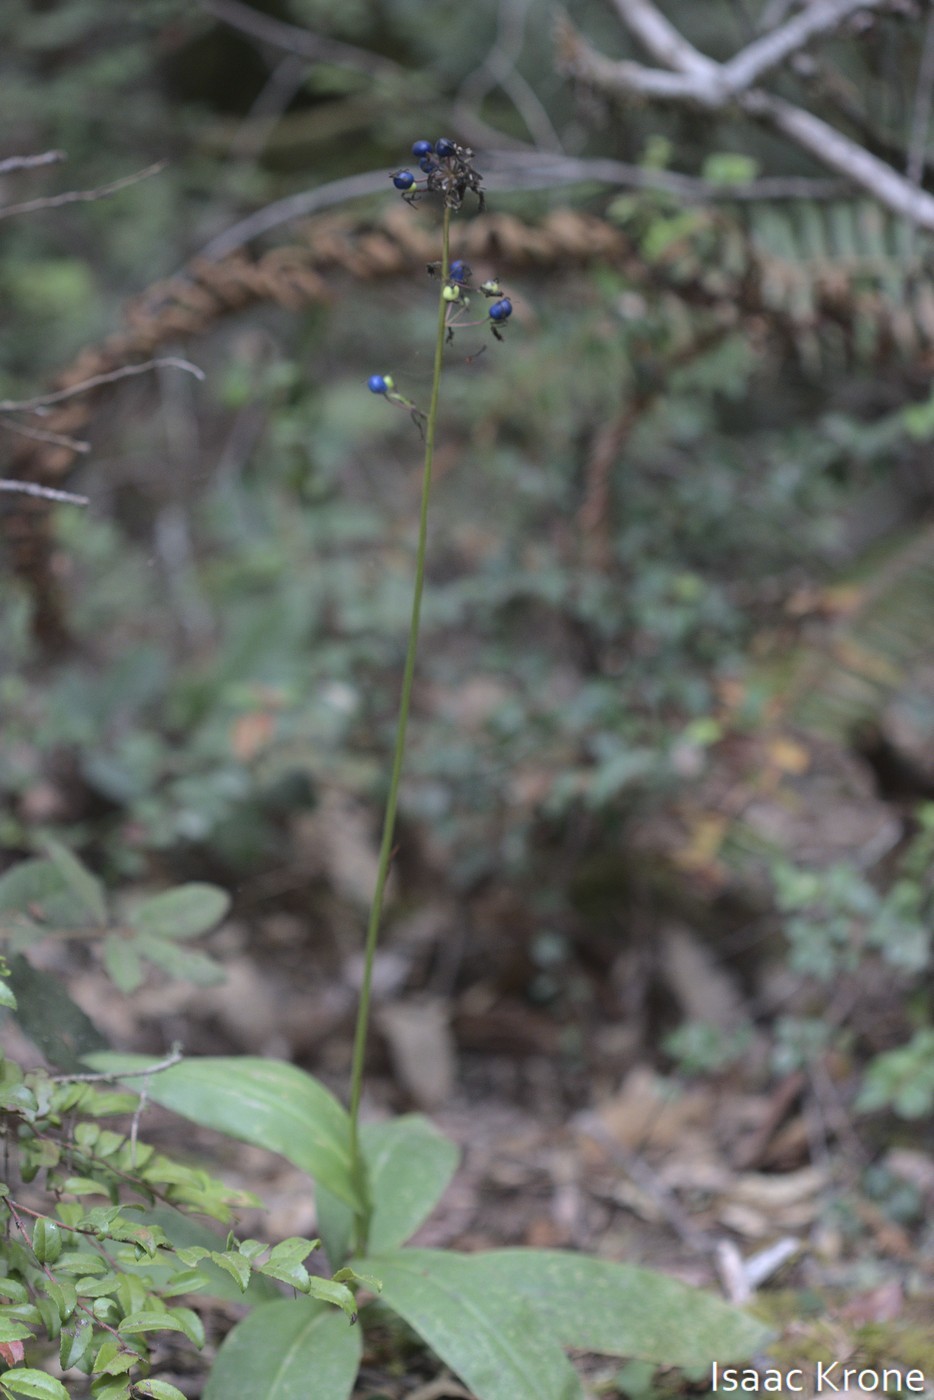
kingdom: Plantae
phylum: Tracheophyta
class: Liliopsida
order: Liliales
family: Liliaceae
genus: Clintonia
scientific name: Clintonia andrewsiana
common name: Red clintonia
